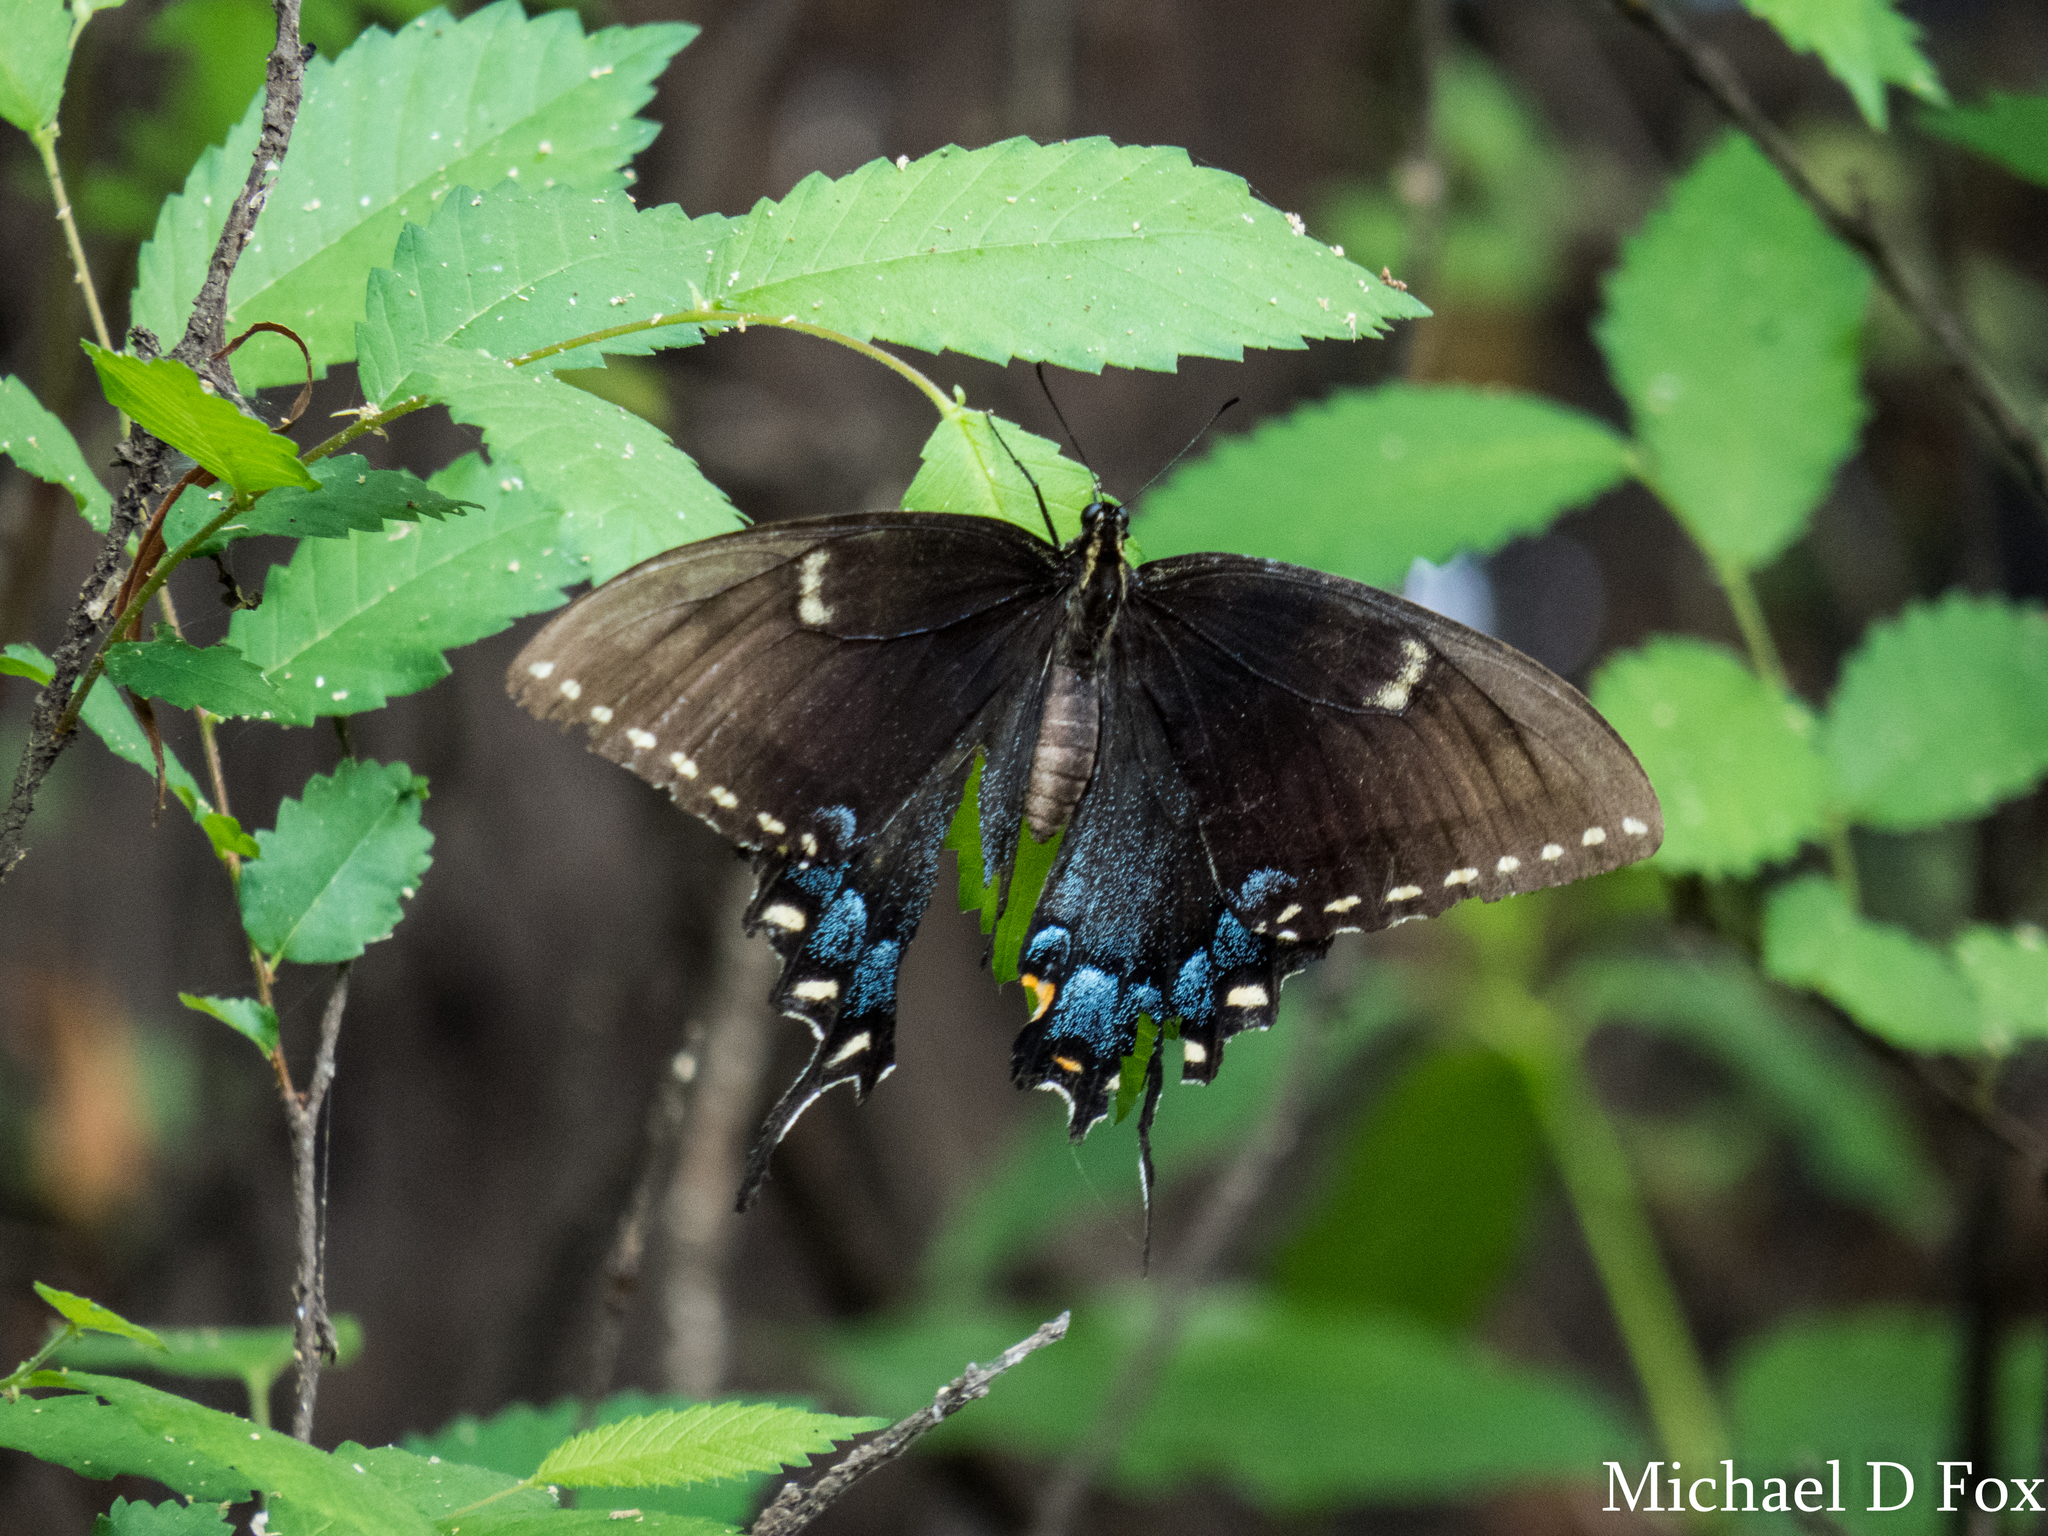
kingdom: Animalia
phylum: Arthropoda
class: Insecta
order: Lepidoptera
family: Papilionidae
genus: Papilio
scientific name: Papilio glaucus
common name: Tiger swallowtail
